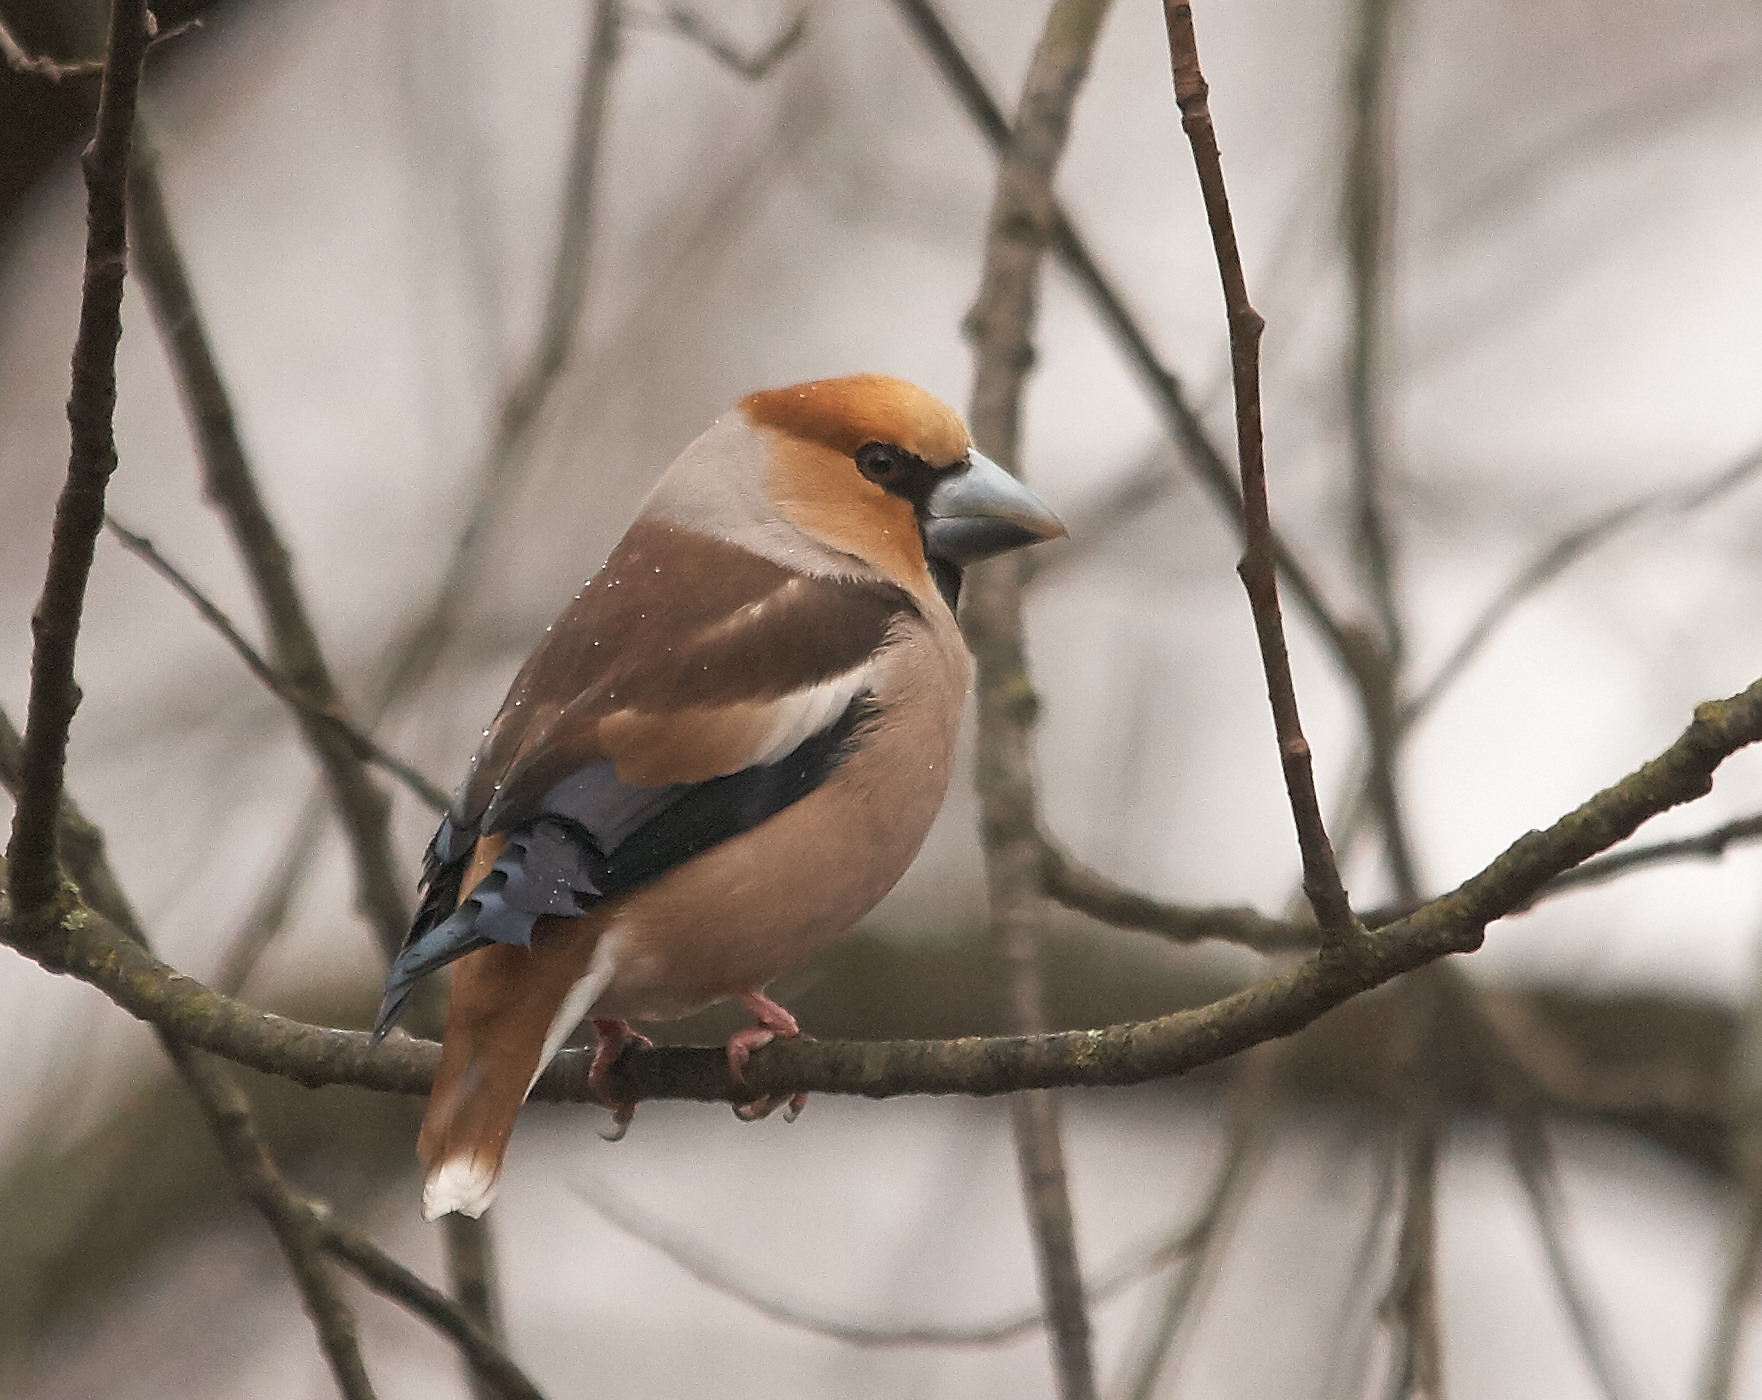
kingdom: Animalia
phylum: Chordata
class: Aves
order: Passeriformes
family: Fringillidae
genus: Coccothraustes
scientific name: Coccothraustes coccothraustes
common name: Hawfinch
